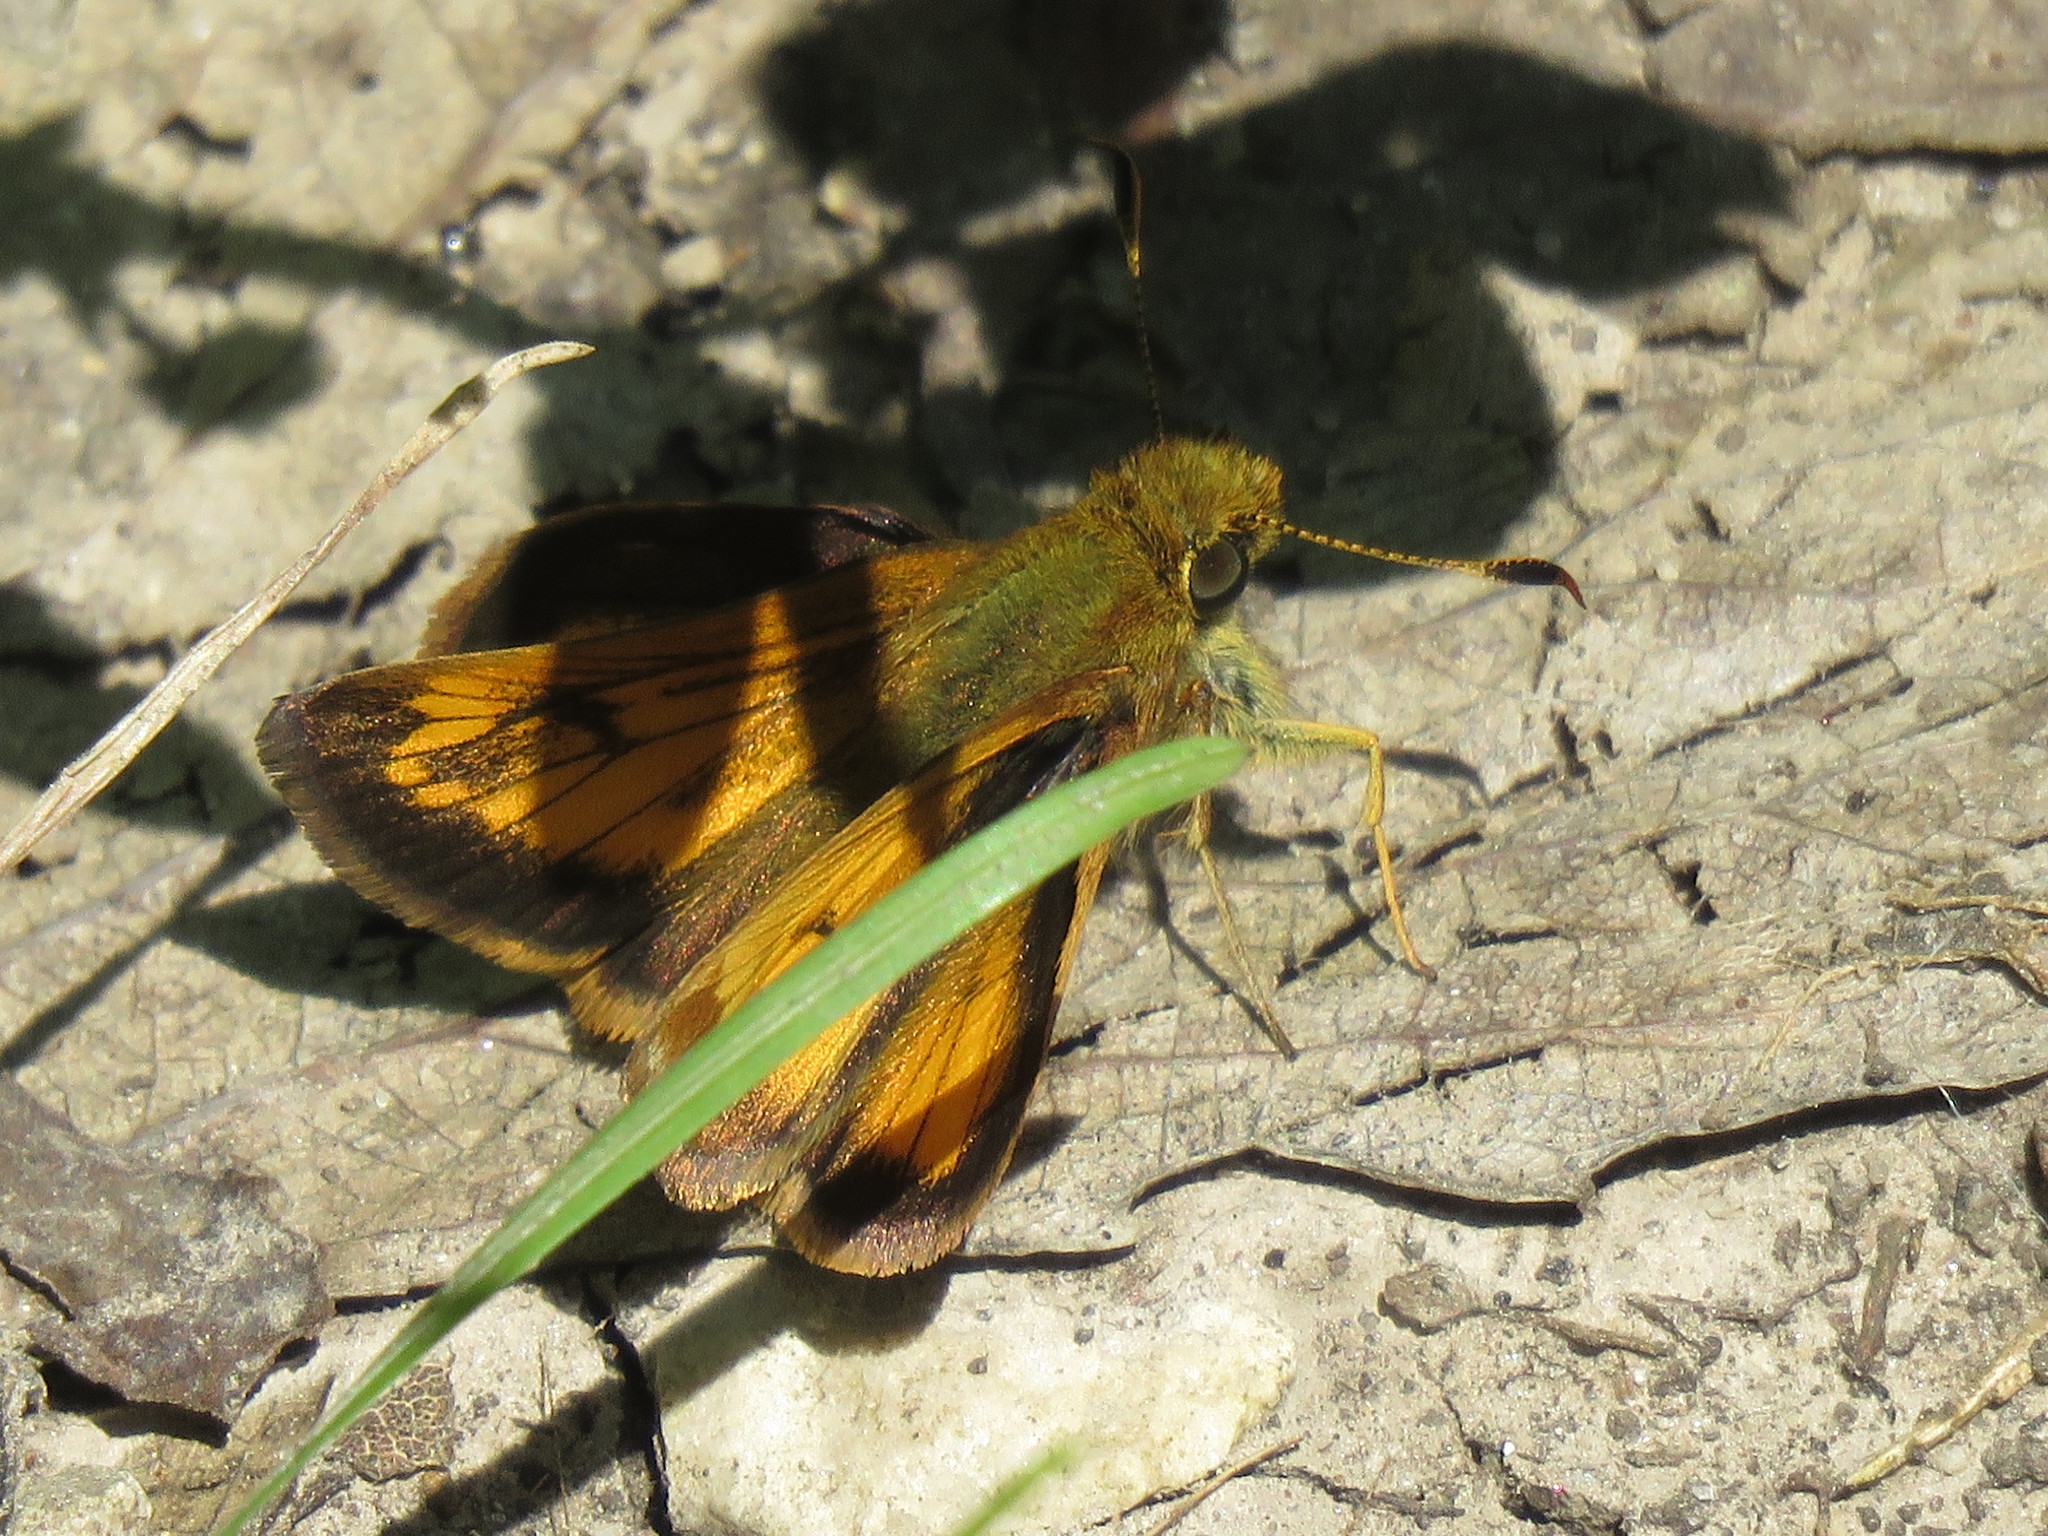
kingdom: Animalia
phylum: Arthropoda
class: Insecta
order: Lepidoptera
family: Hesperiidae
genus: Lon
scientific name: Lon hobomok
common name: Hobomok skipper
